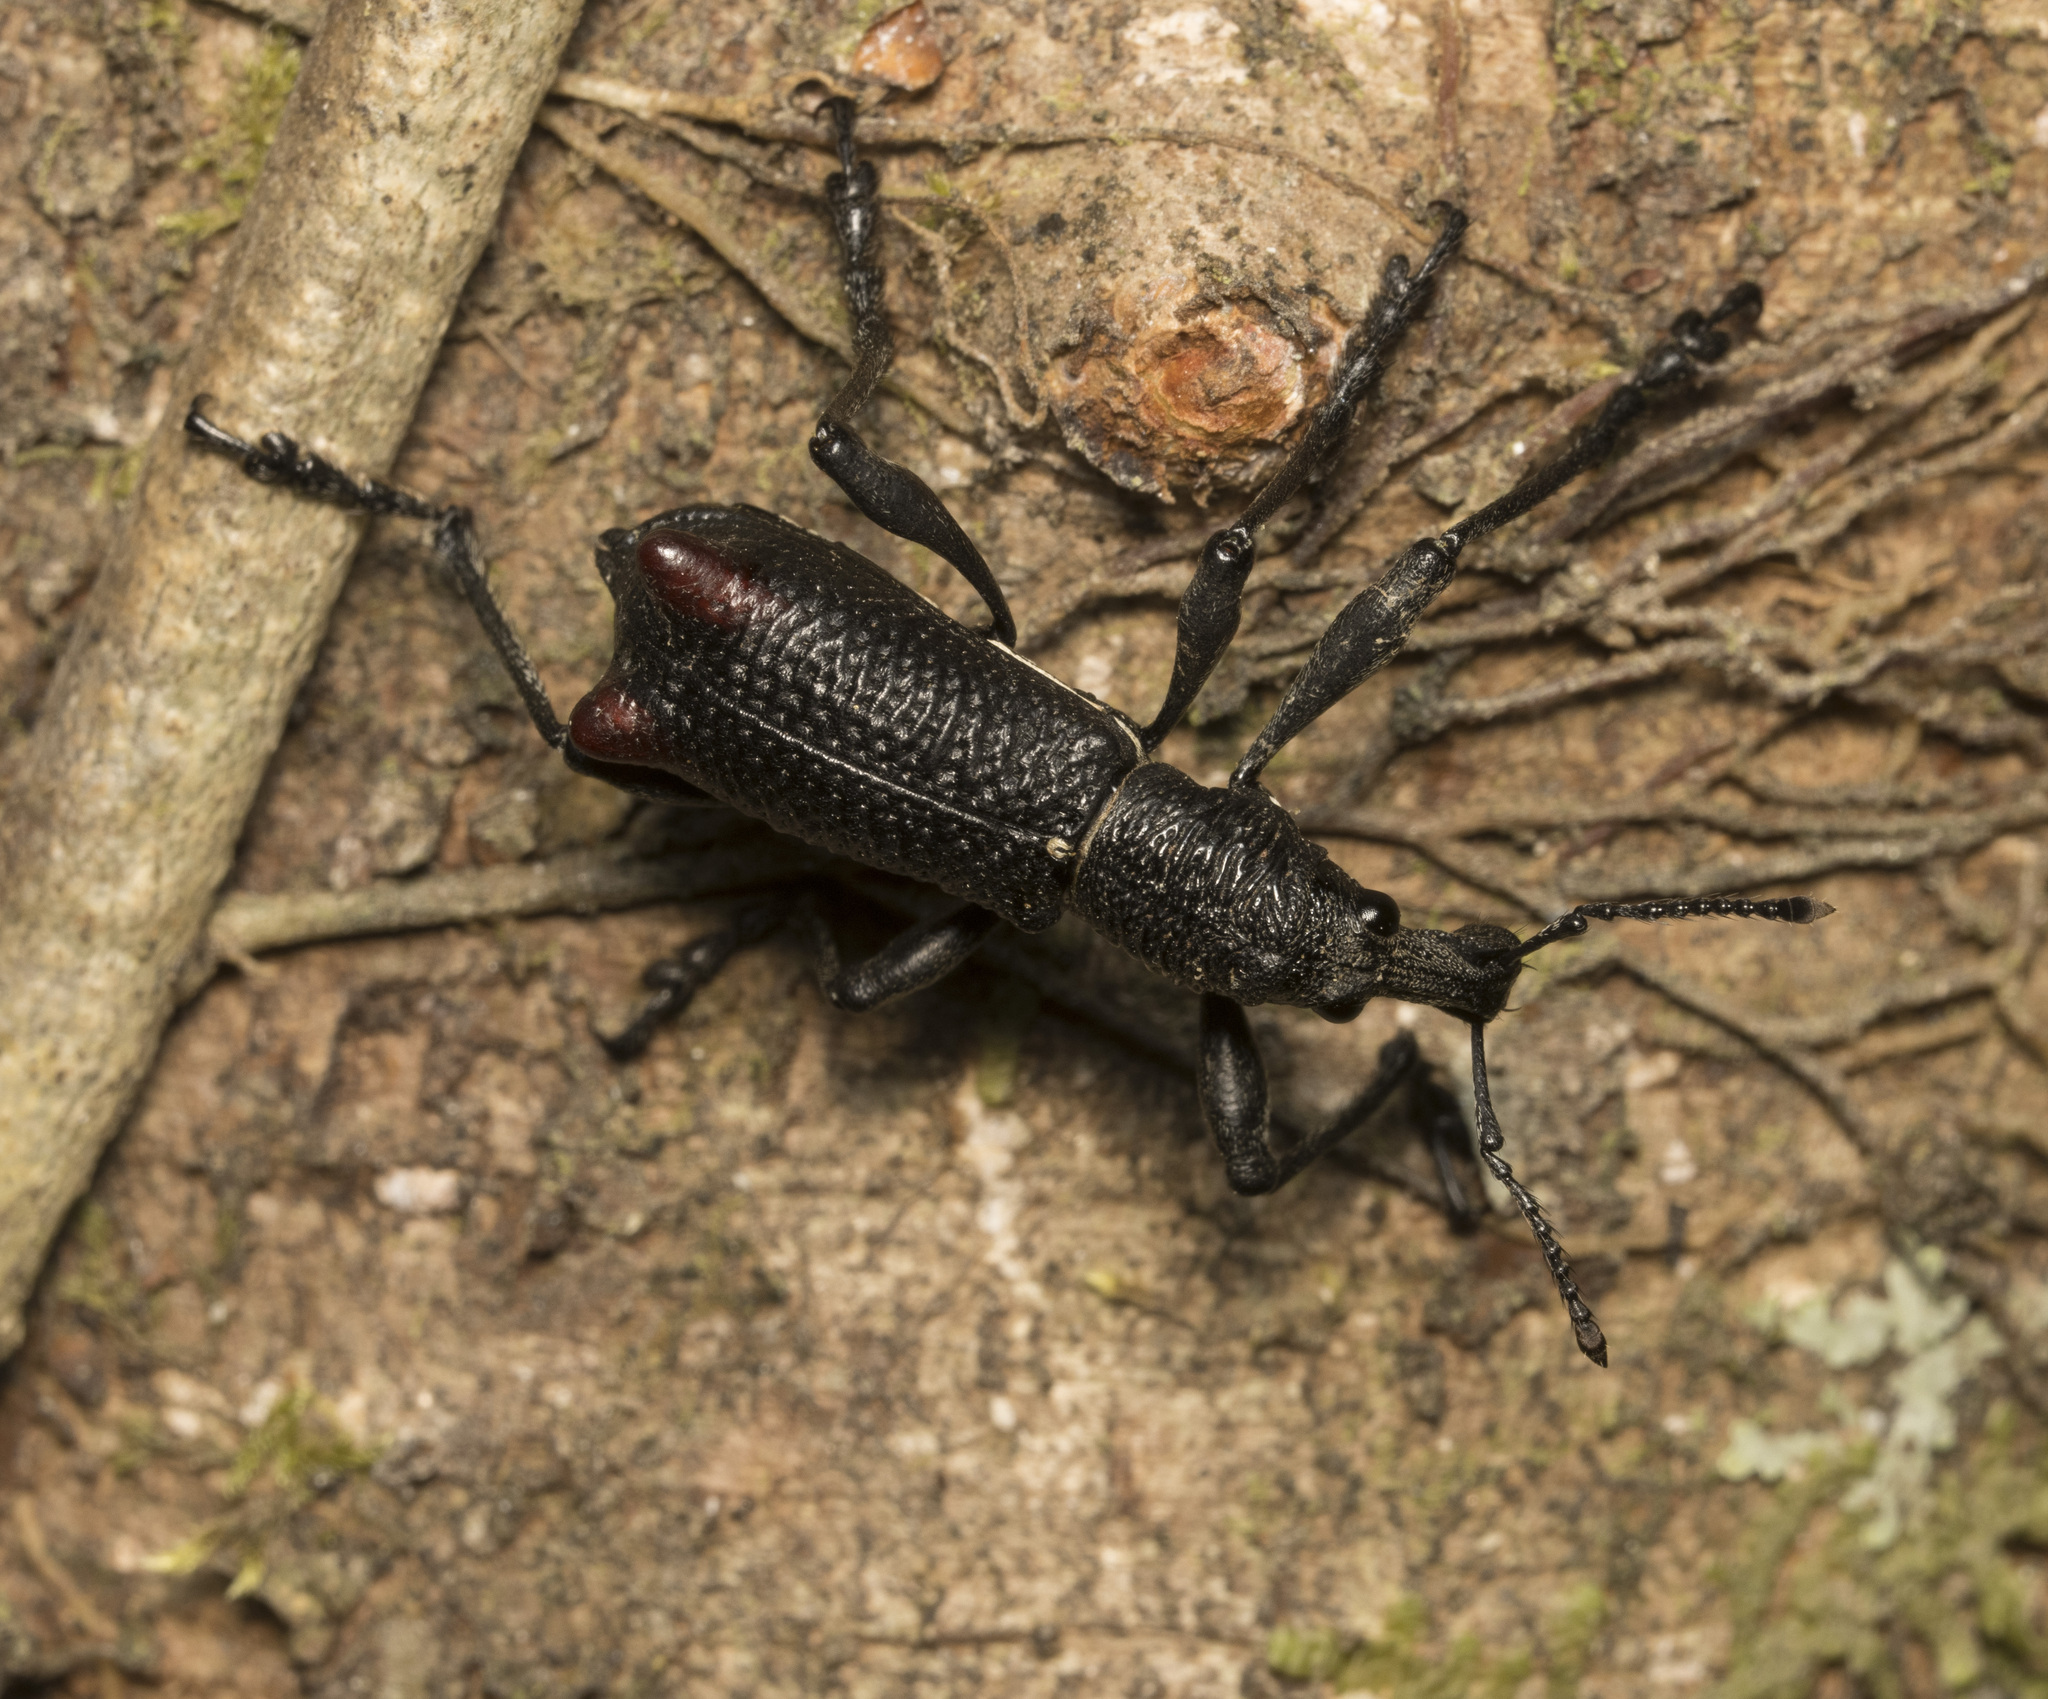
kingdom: Animalia
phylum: Arthropoda
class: Insecta
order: Coleoptera
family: Curculionidae
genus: Alastoropolus
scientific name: Alastoropolus strumosus
